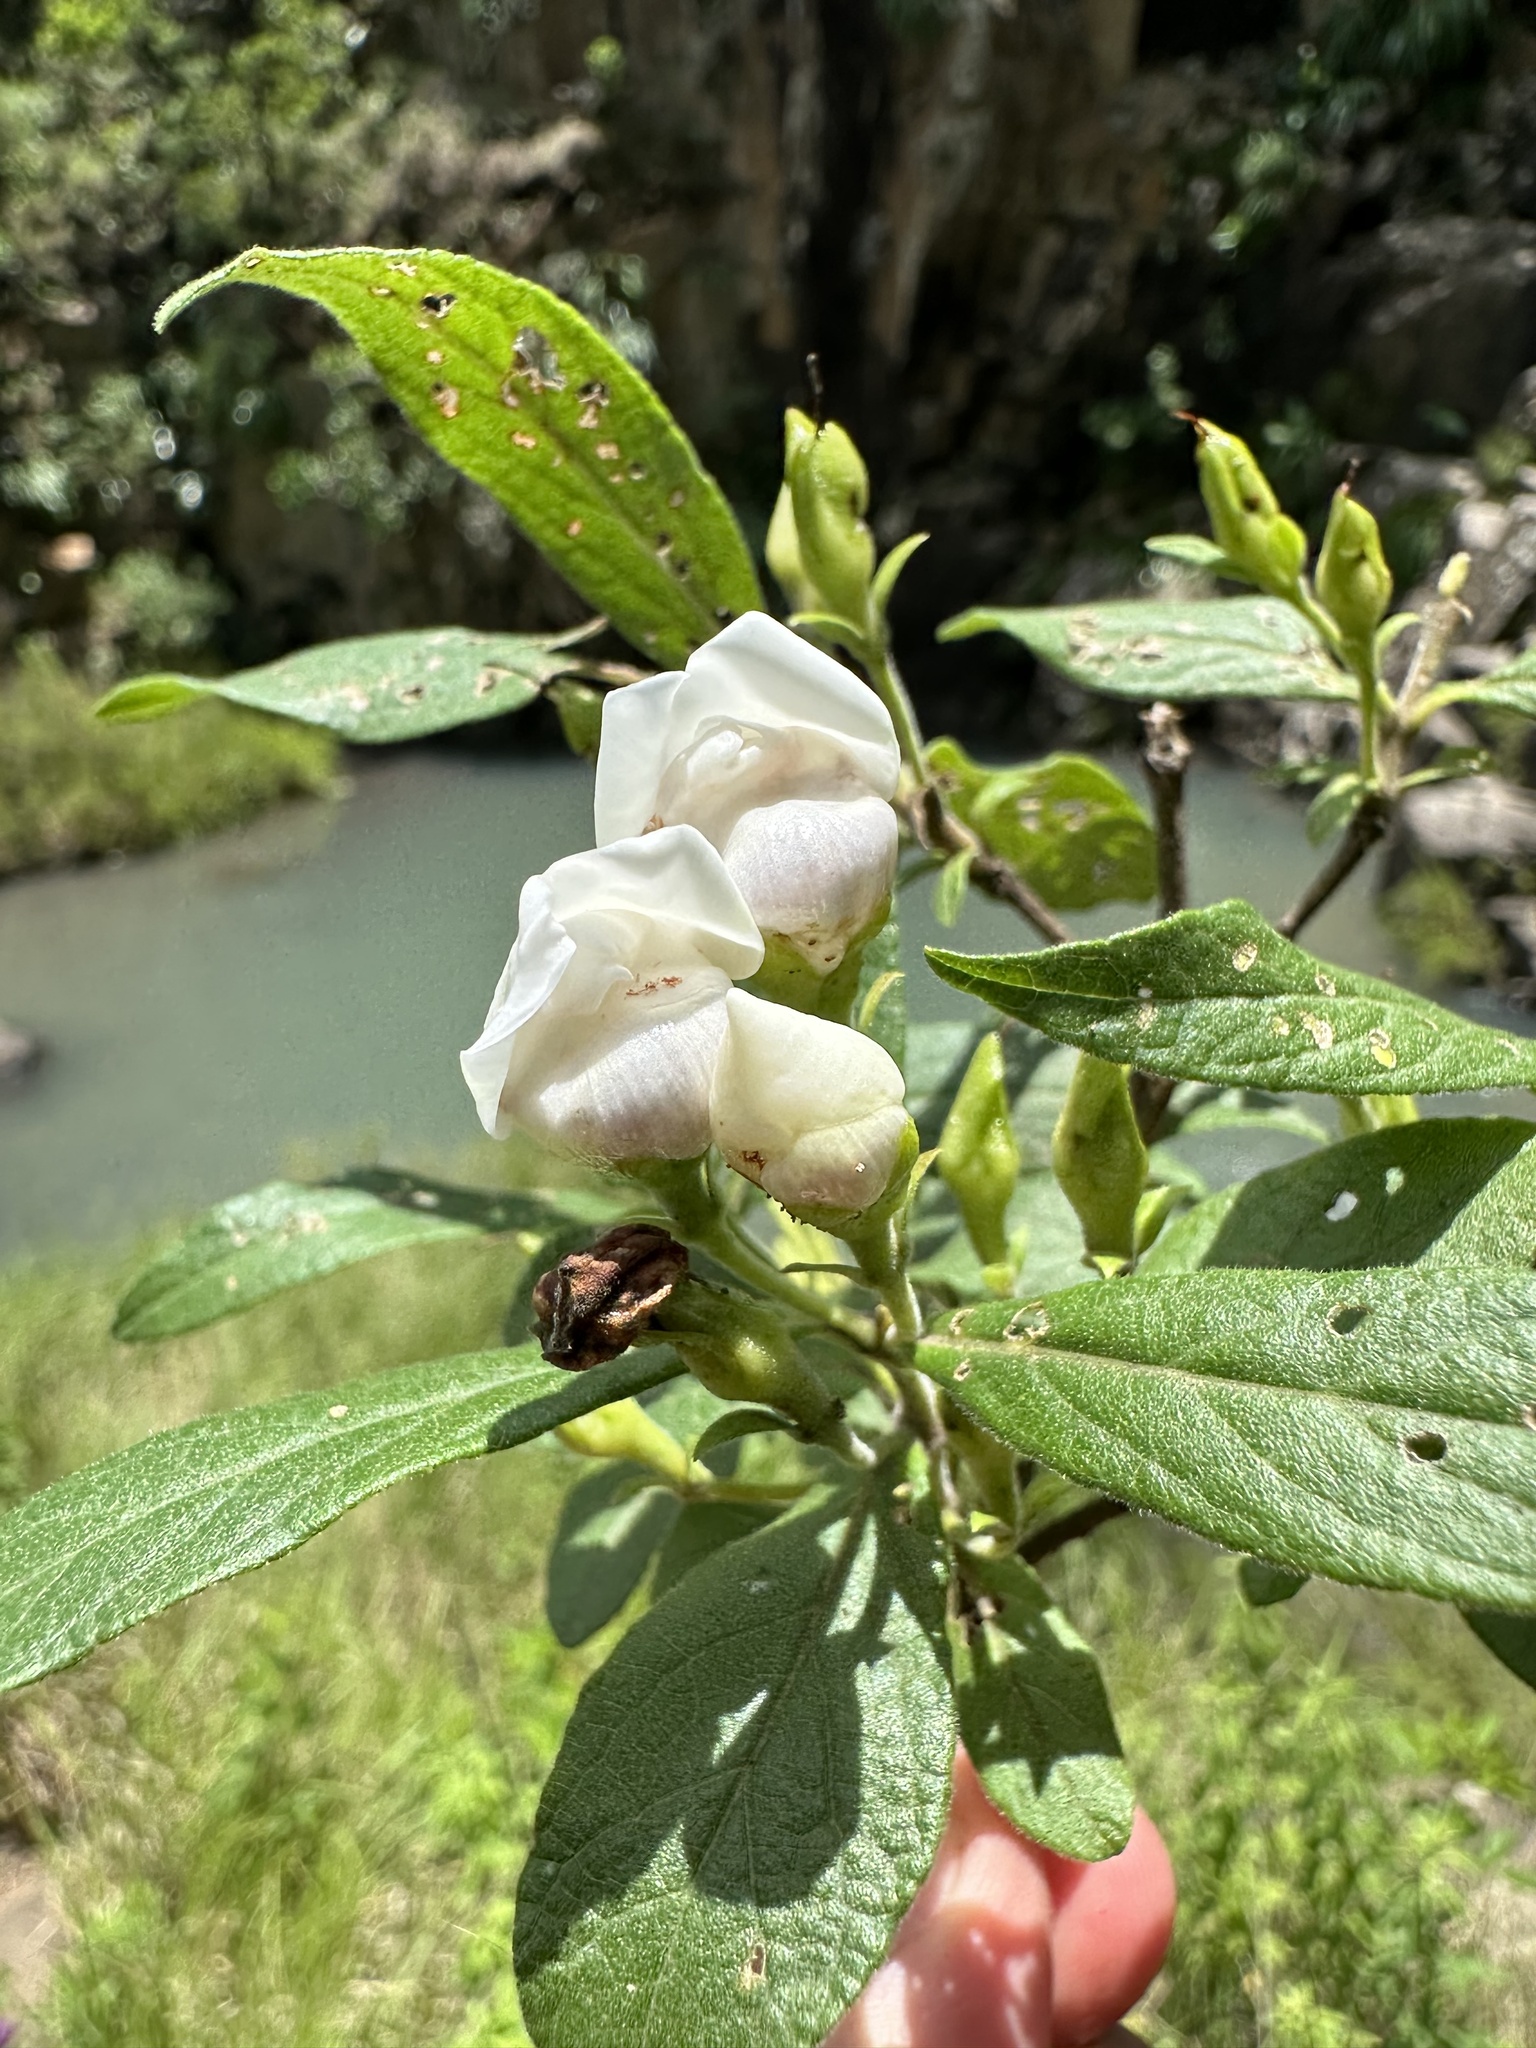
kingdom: Plantae
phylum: Tracheophyta
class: Magnoliopsida
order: Lamiales
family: Stilbaceae
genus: Bowkeria
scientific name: Bowkeria verticillata
